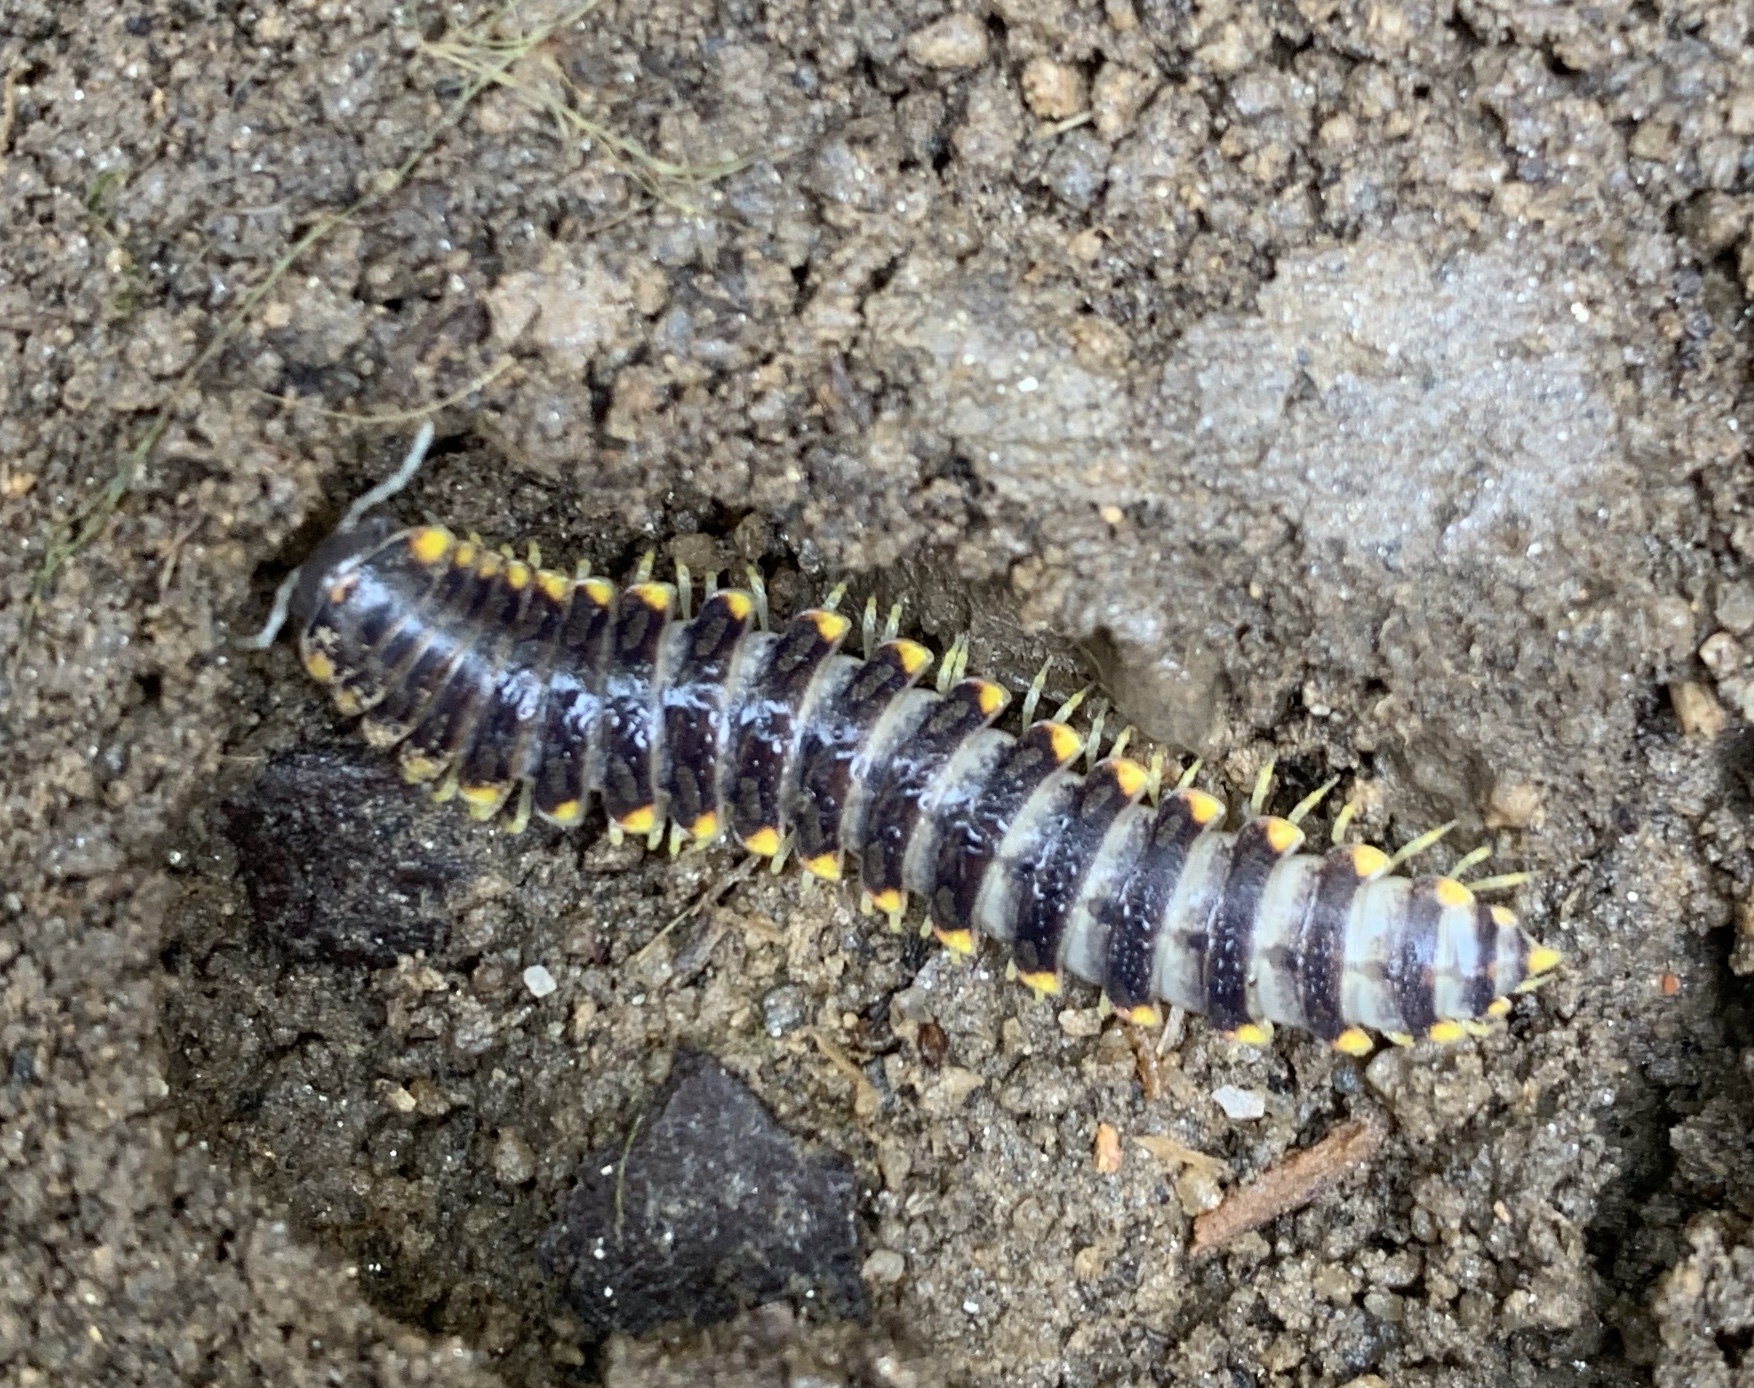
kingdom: Animalia
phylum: Arthropoda
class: Diplopoda
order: Polydesmida
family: Xystodesmidae
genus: Apheloria
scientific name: Apheloria tigana
